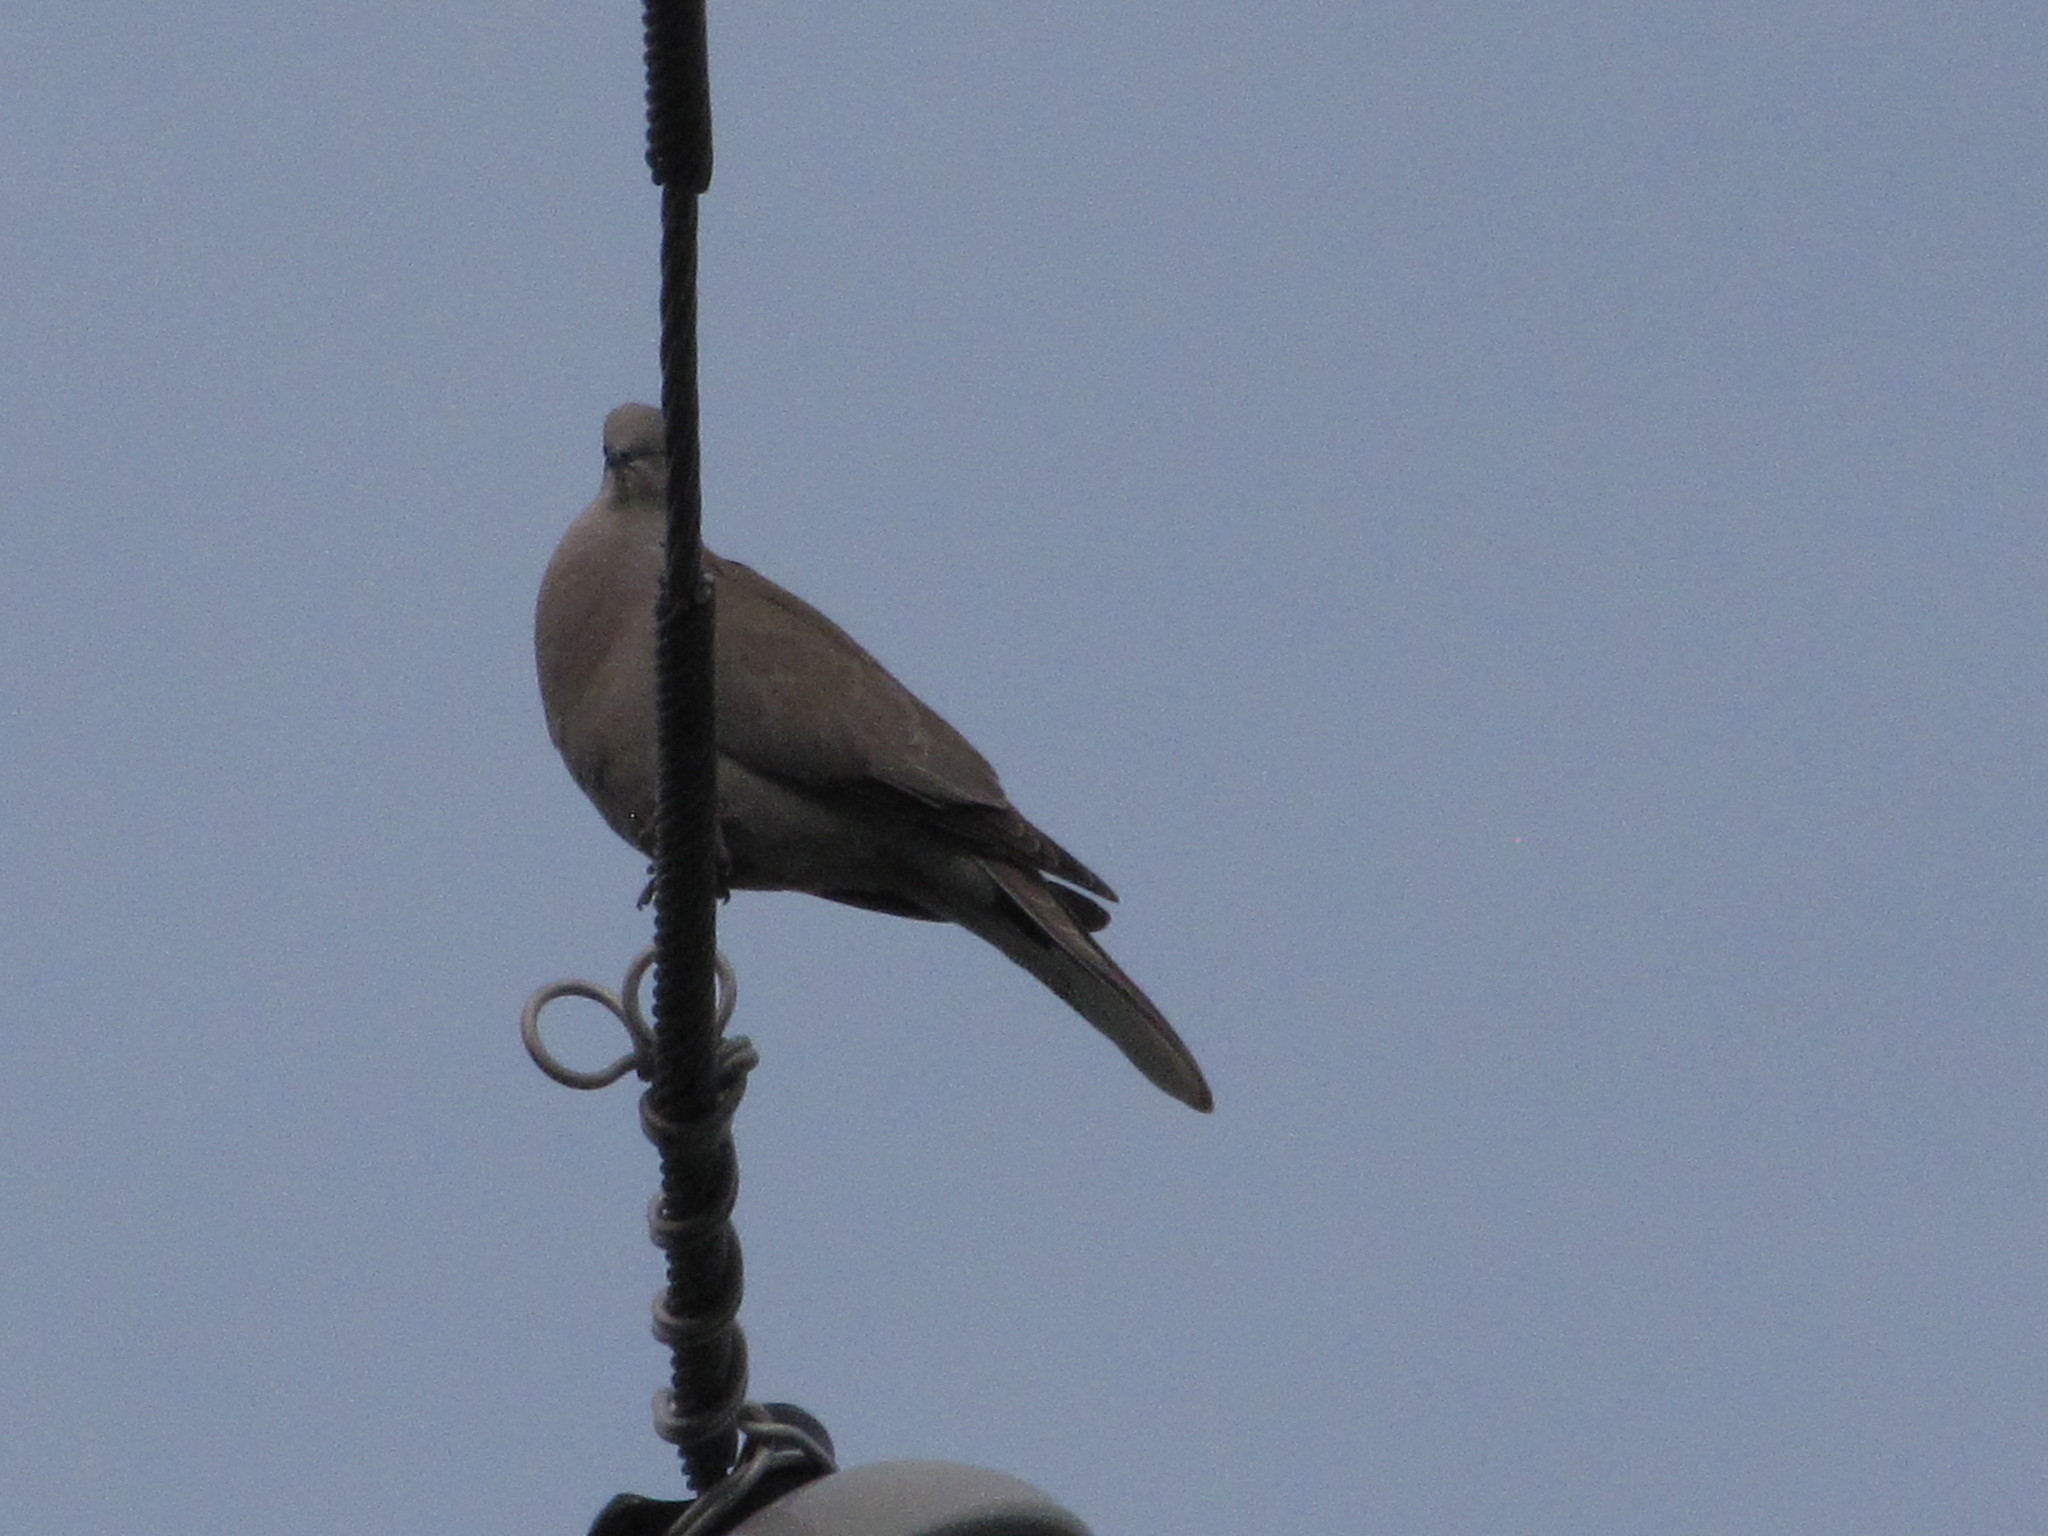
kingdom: Animalia
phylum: Chordata
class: Aves
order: Columbiformes
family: Columbidae
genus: Streptopelia
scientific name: Streptopelia decaocto
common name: Eurasian collared dove
